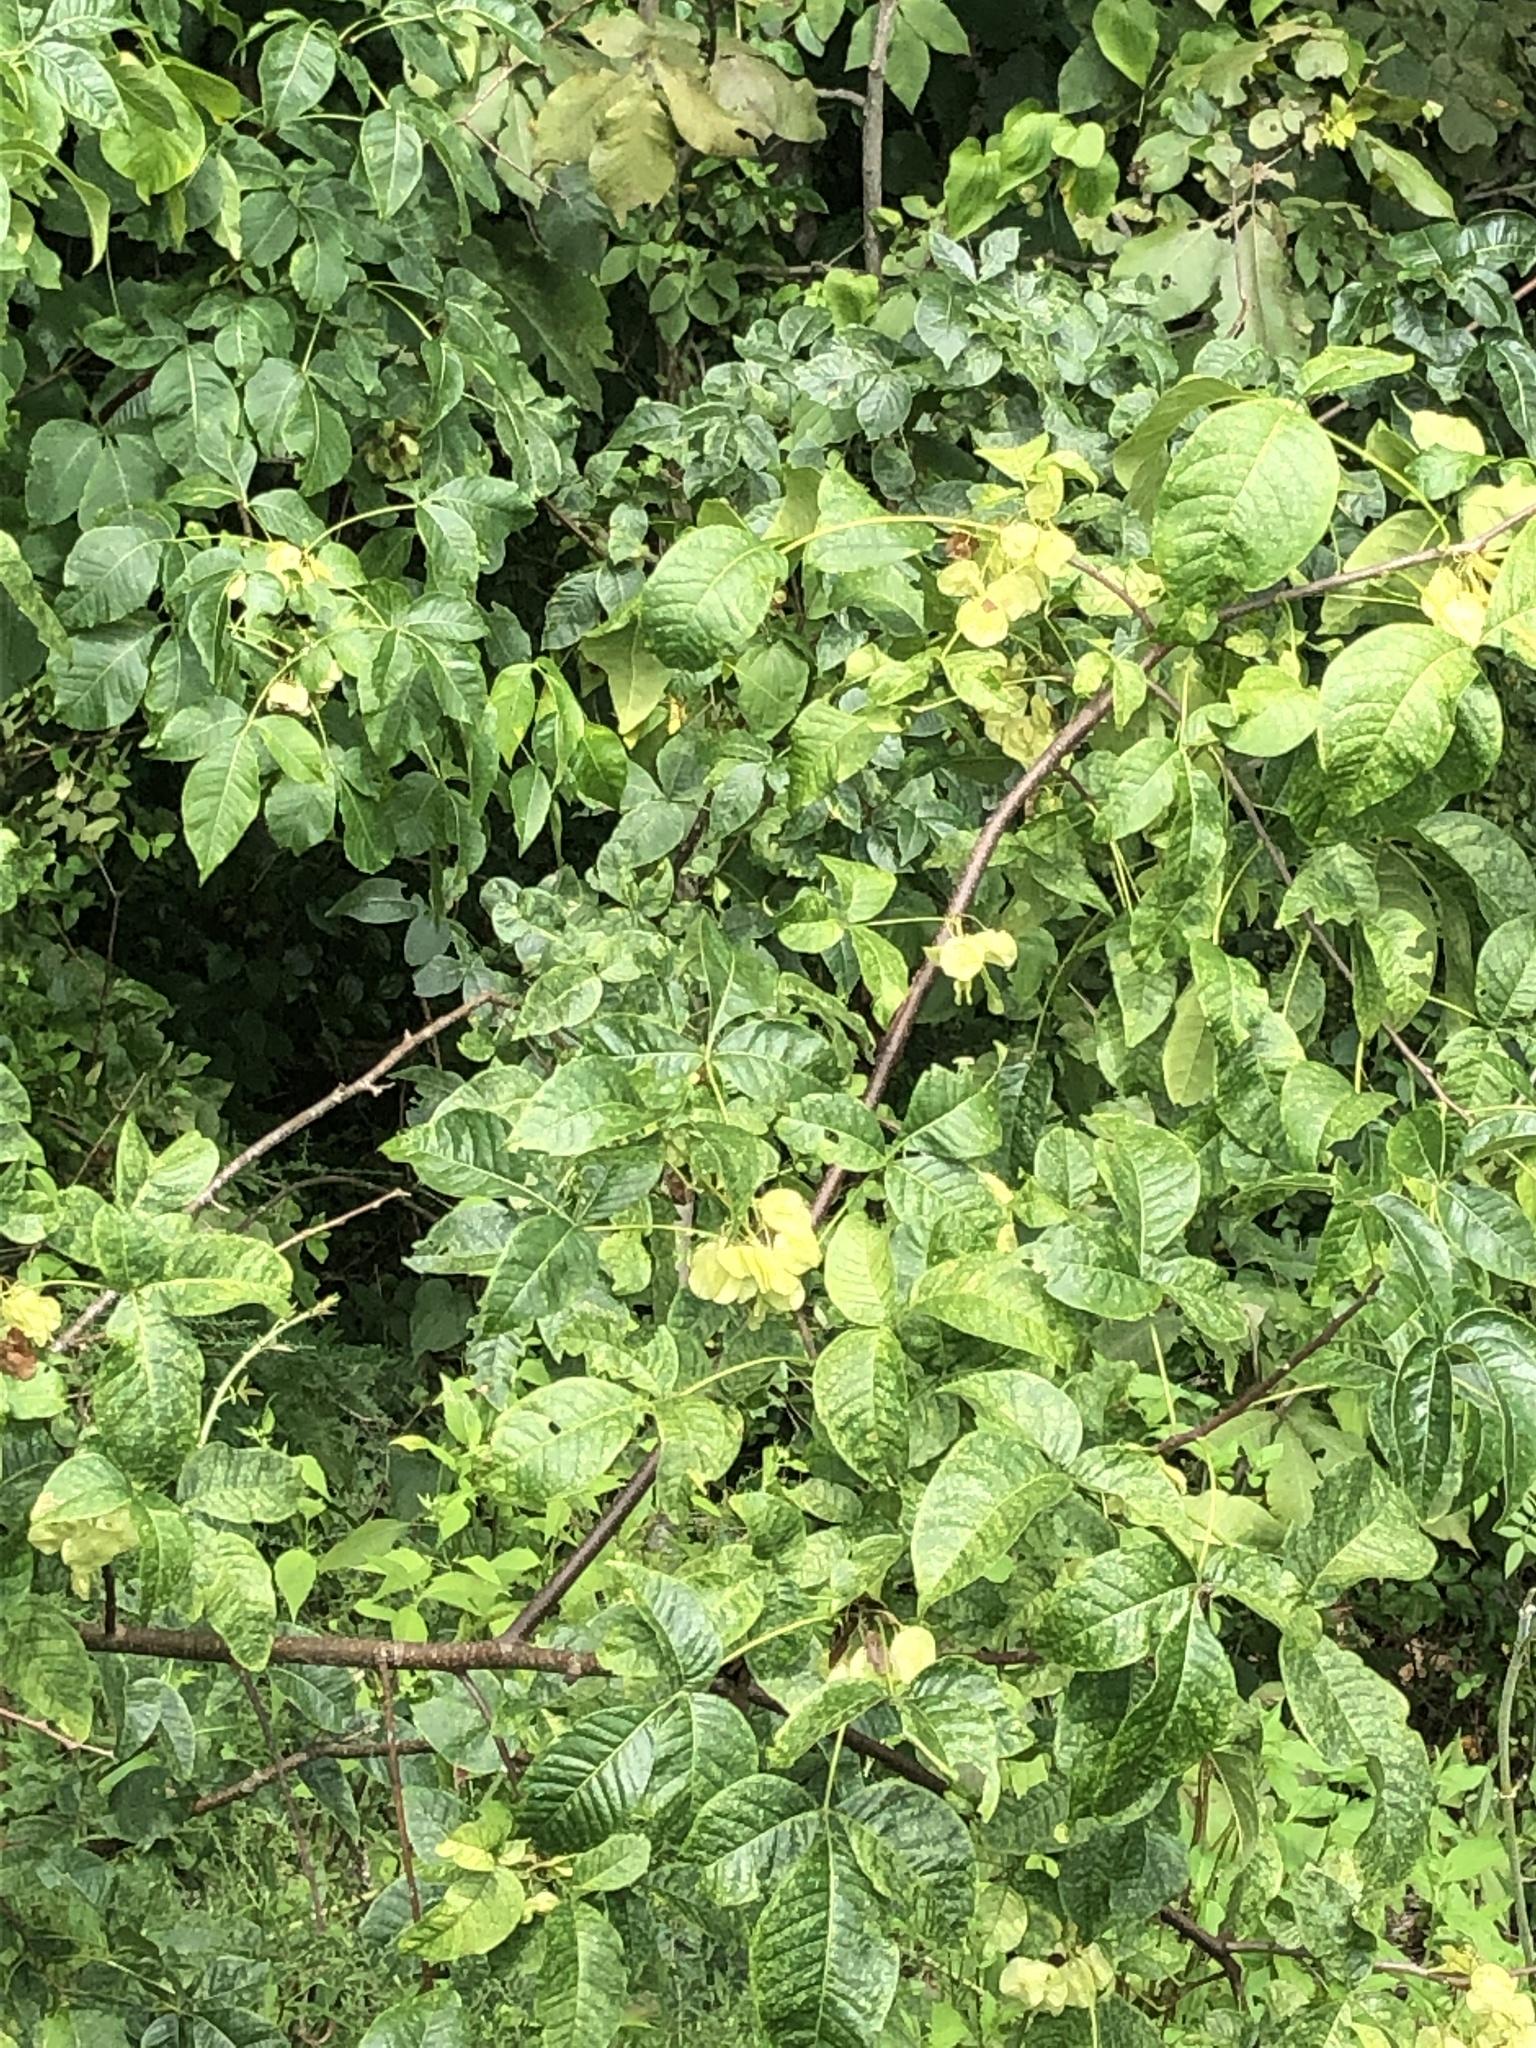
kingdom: Plantae
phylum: Tracheophyta
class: Magnoliopsida
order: Sapindales
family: Rutaceae
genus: Ptelea
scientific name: Ptelea trifoliata
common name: Common hop-tree
